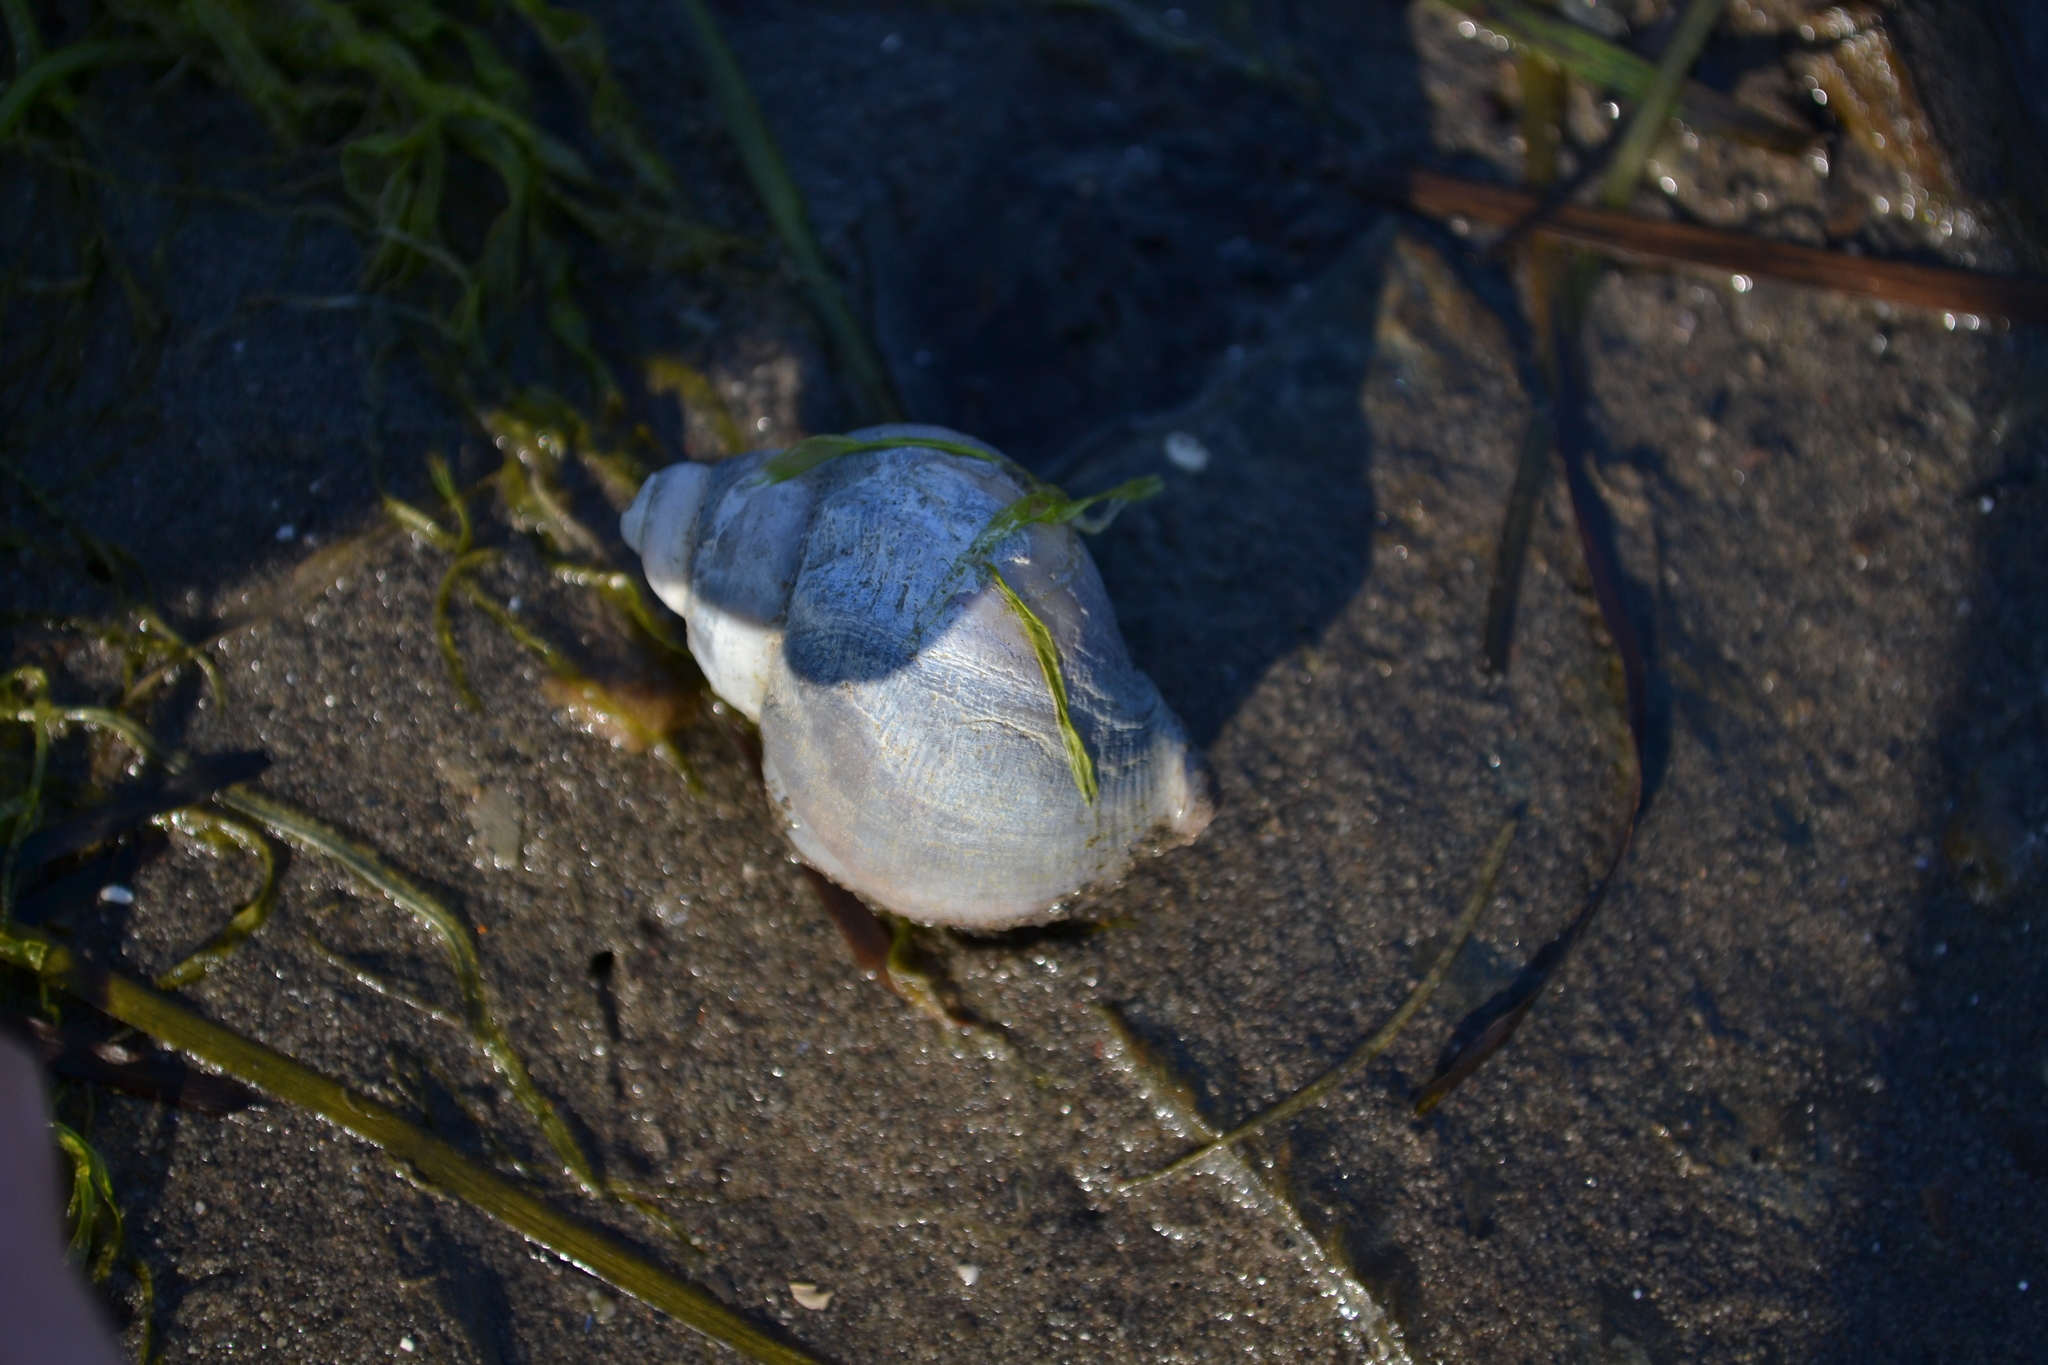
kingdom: Animalia
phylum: Mollusca
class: Gastropoda
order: Neogastropoda
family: Buccinidae
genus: Buccinum
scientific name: Buccinum undatum
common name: Common whelk
